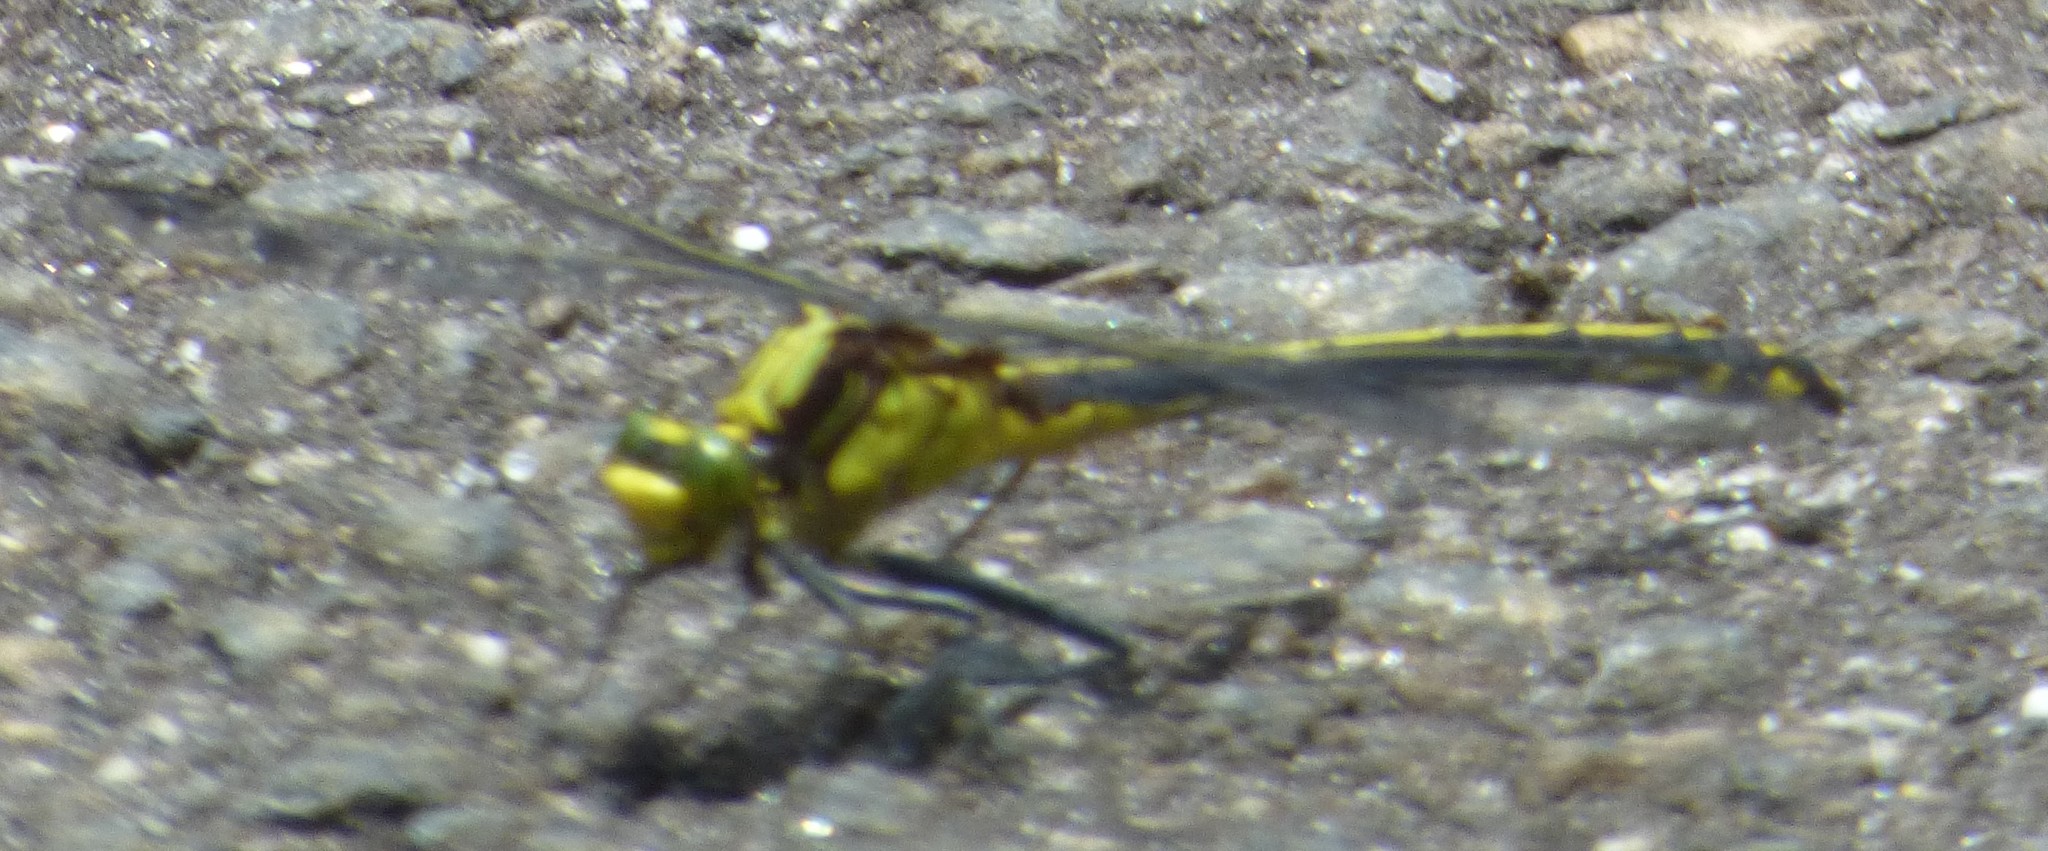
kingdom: Animalia
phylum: Arthropoda
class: Insecta
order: Odonata
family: Gomphidae
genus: Dromogomphus
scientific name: Dromogomphus spinosus
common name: Black-shouldered spinyleg
